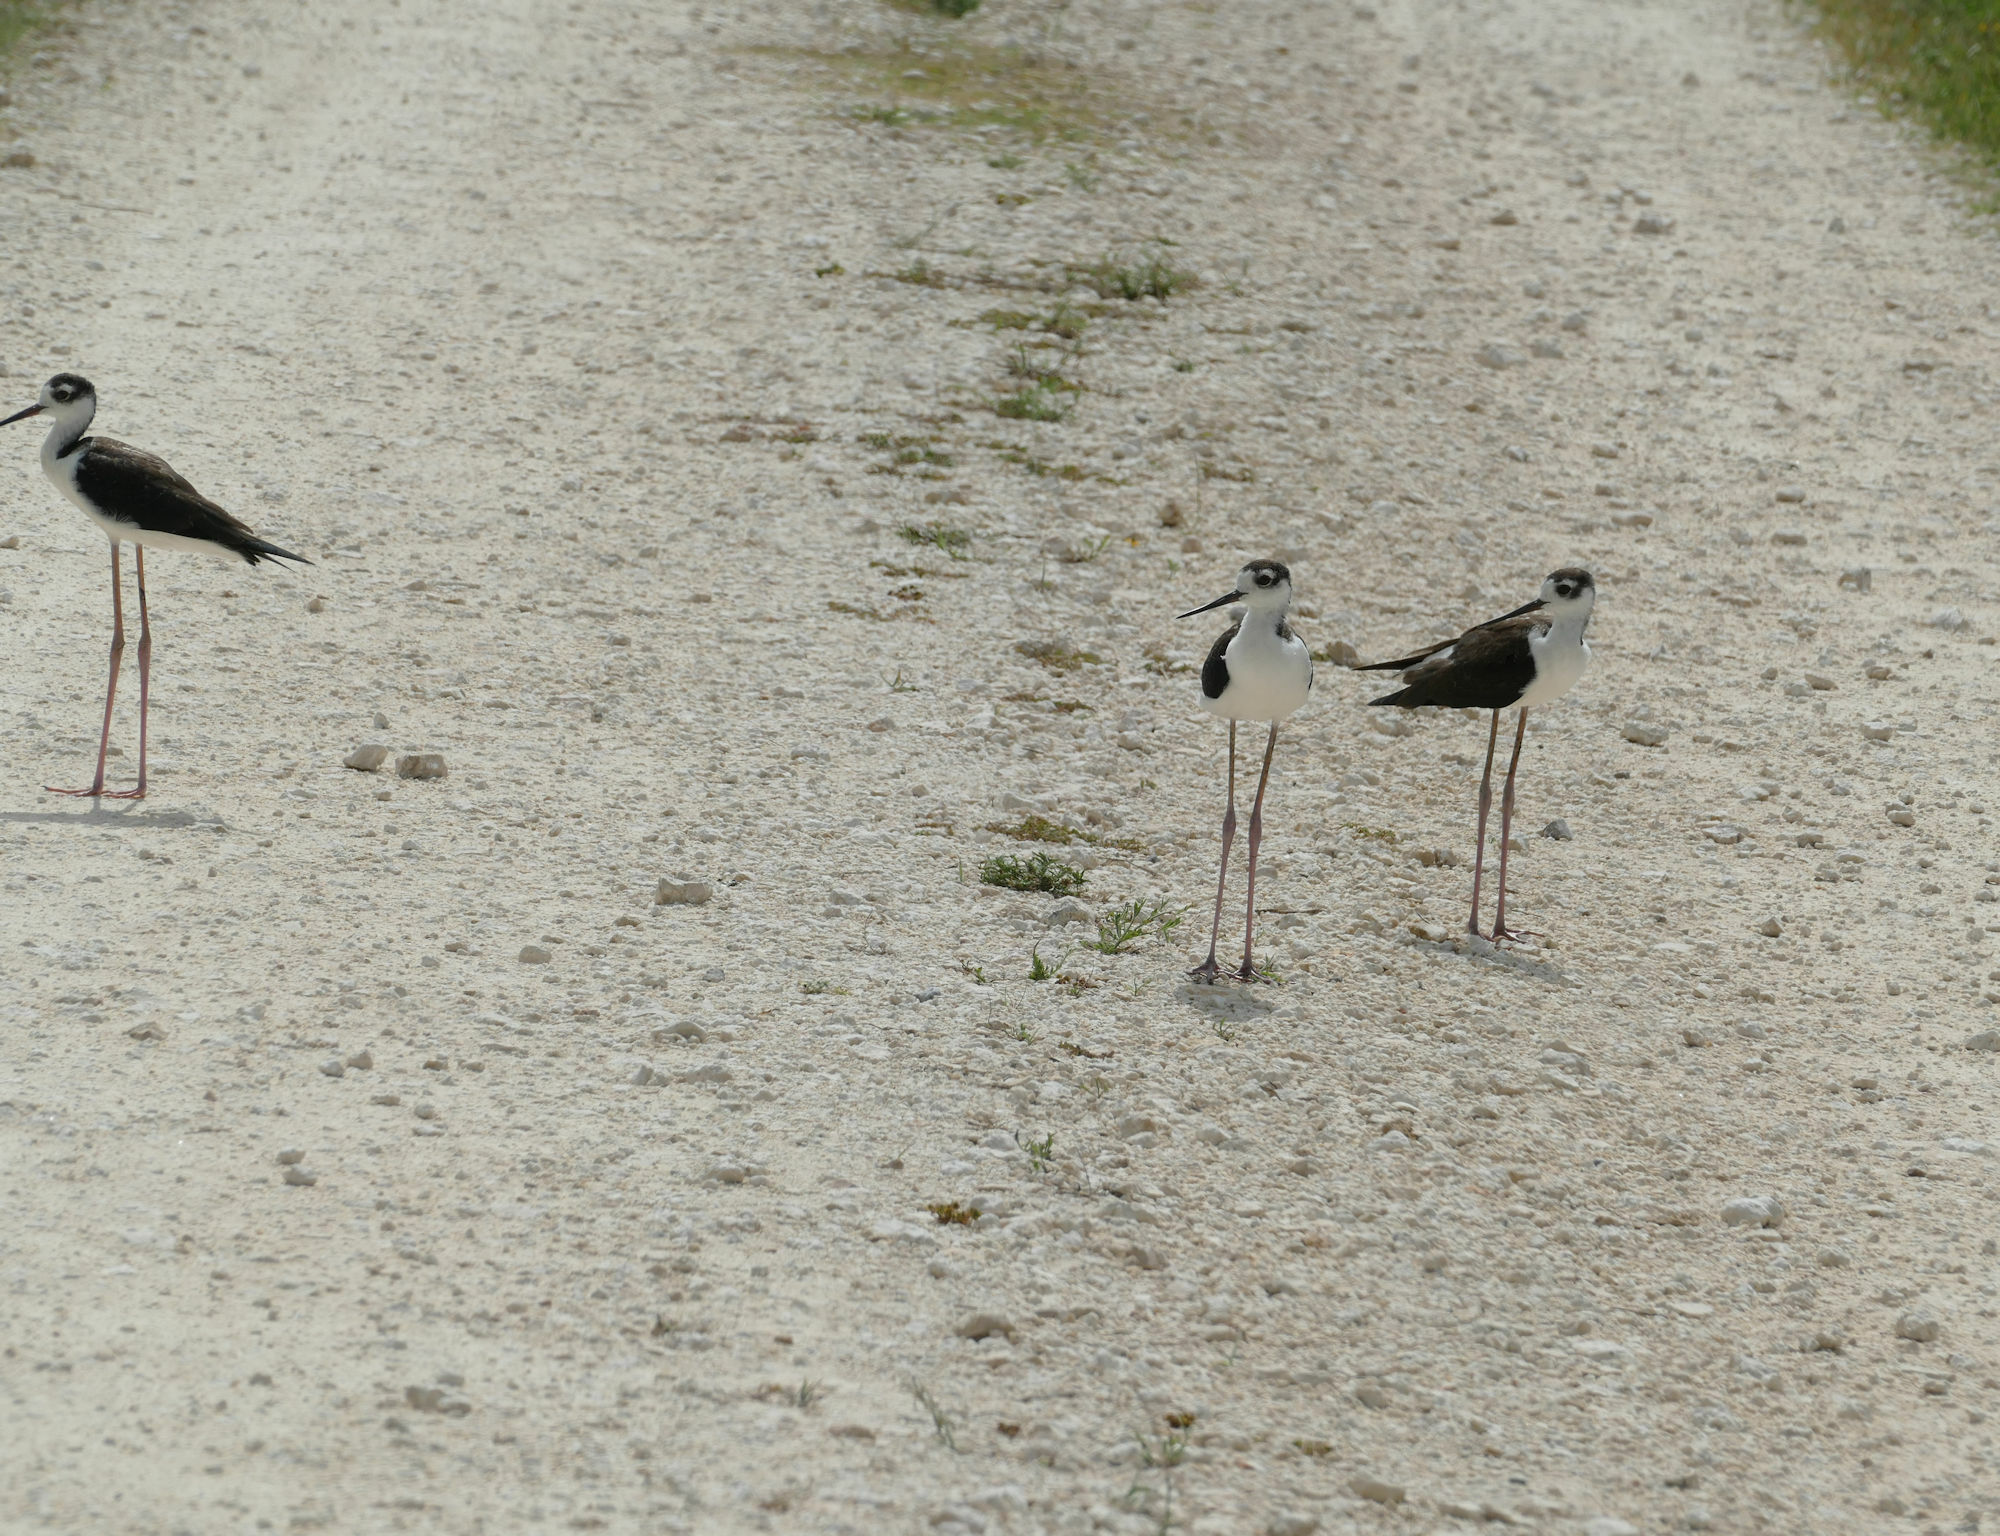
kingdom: Animalia
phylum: Chordata
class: Aves
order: Charadriiformes
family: Recurvirostridae
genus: Himantopus
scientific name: Himantopus mexicanus
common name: Black-necked stilt
